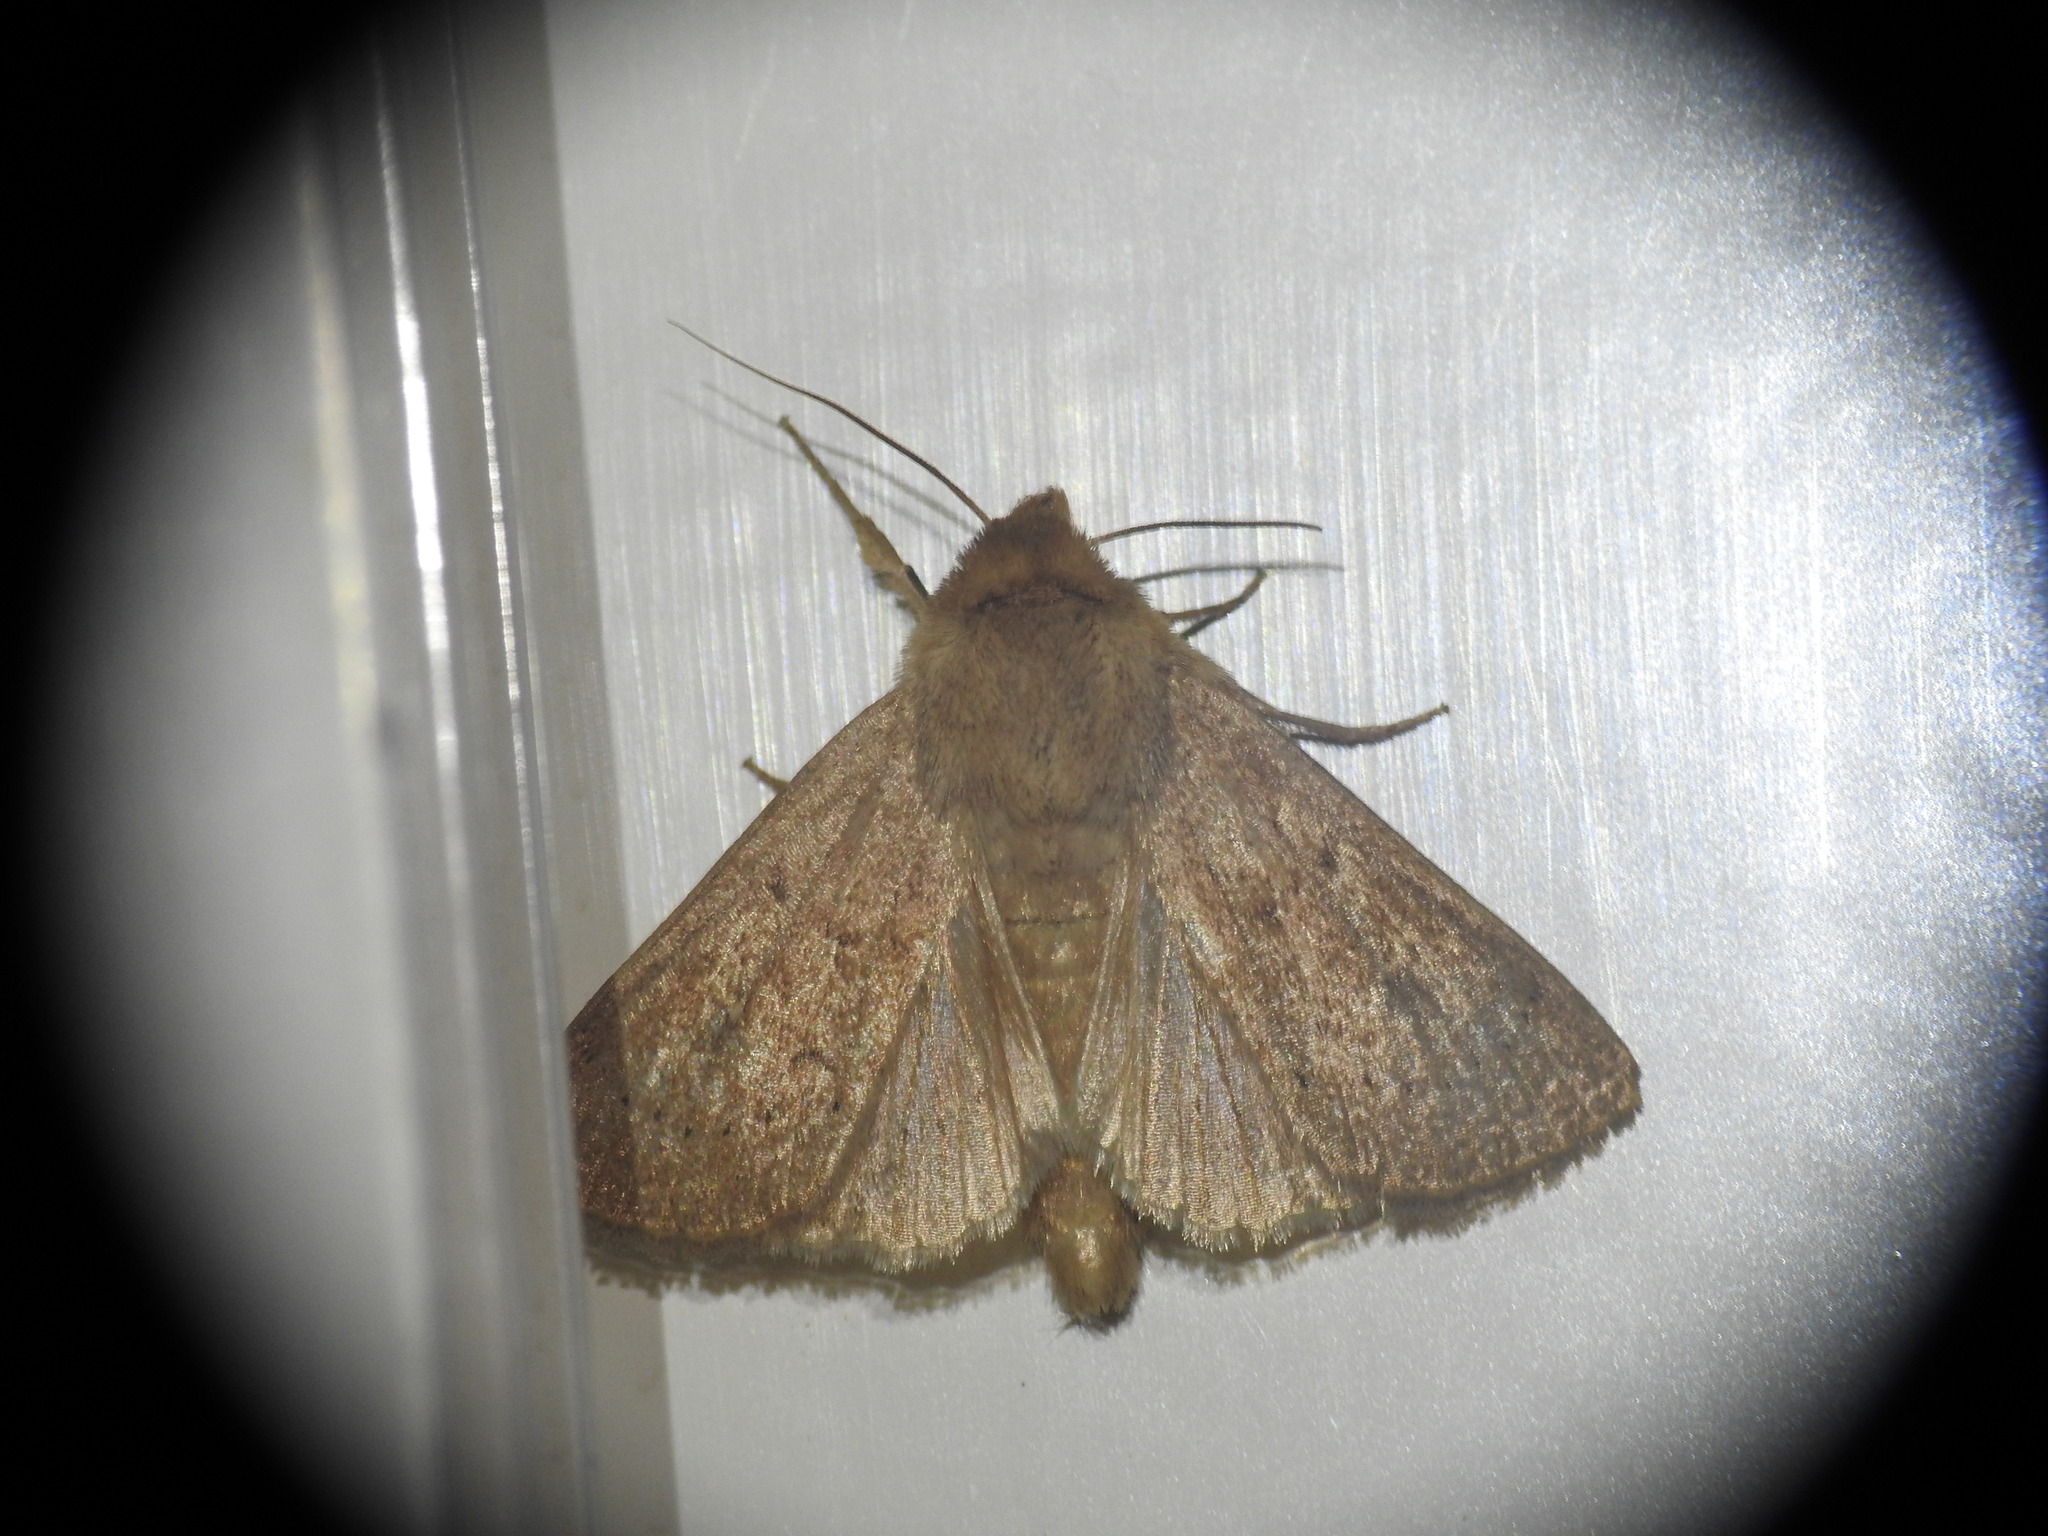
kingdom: Animalia
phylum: Arthropoda
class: Insecta
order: Lepidoptera
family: Noctuidae
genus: Mythimna
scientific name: Mythimna ferrago
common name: Clay
